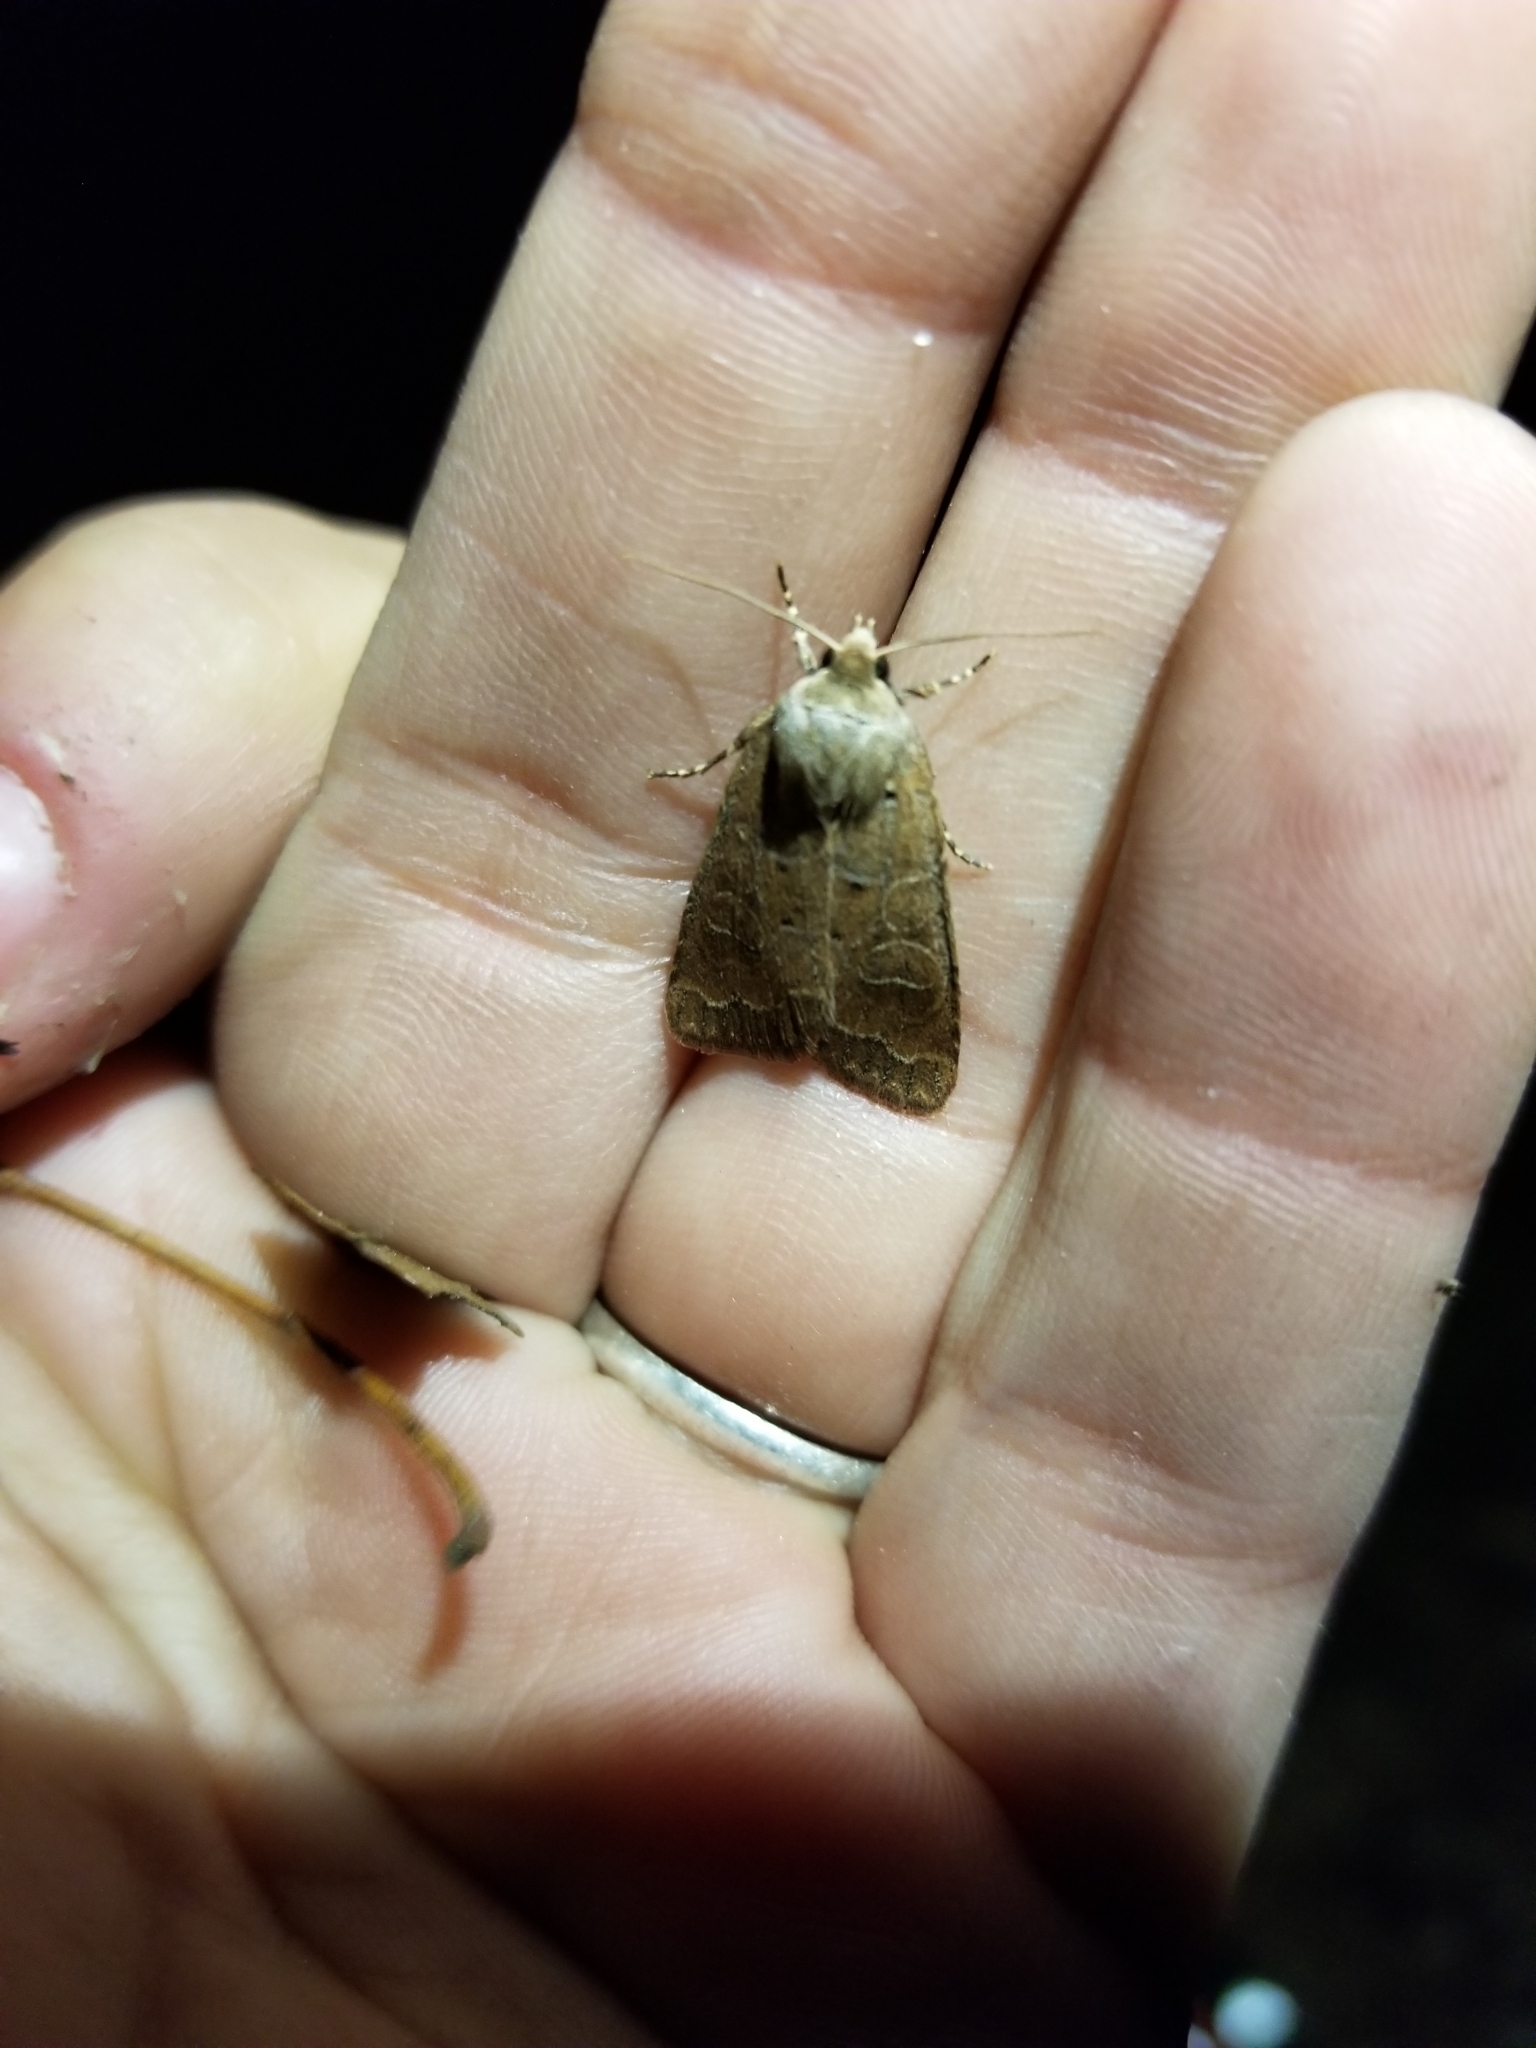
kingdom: Animalia
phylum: Arthropoda
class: Insecta
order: Lepidoptera
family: Noctuidae
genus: Kocakina
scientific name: Kocakina fidelis
